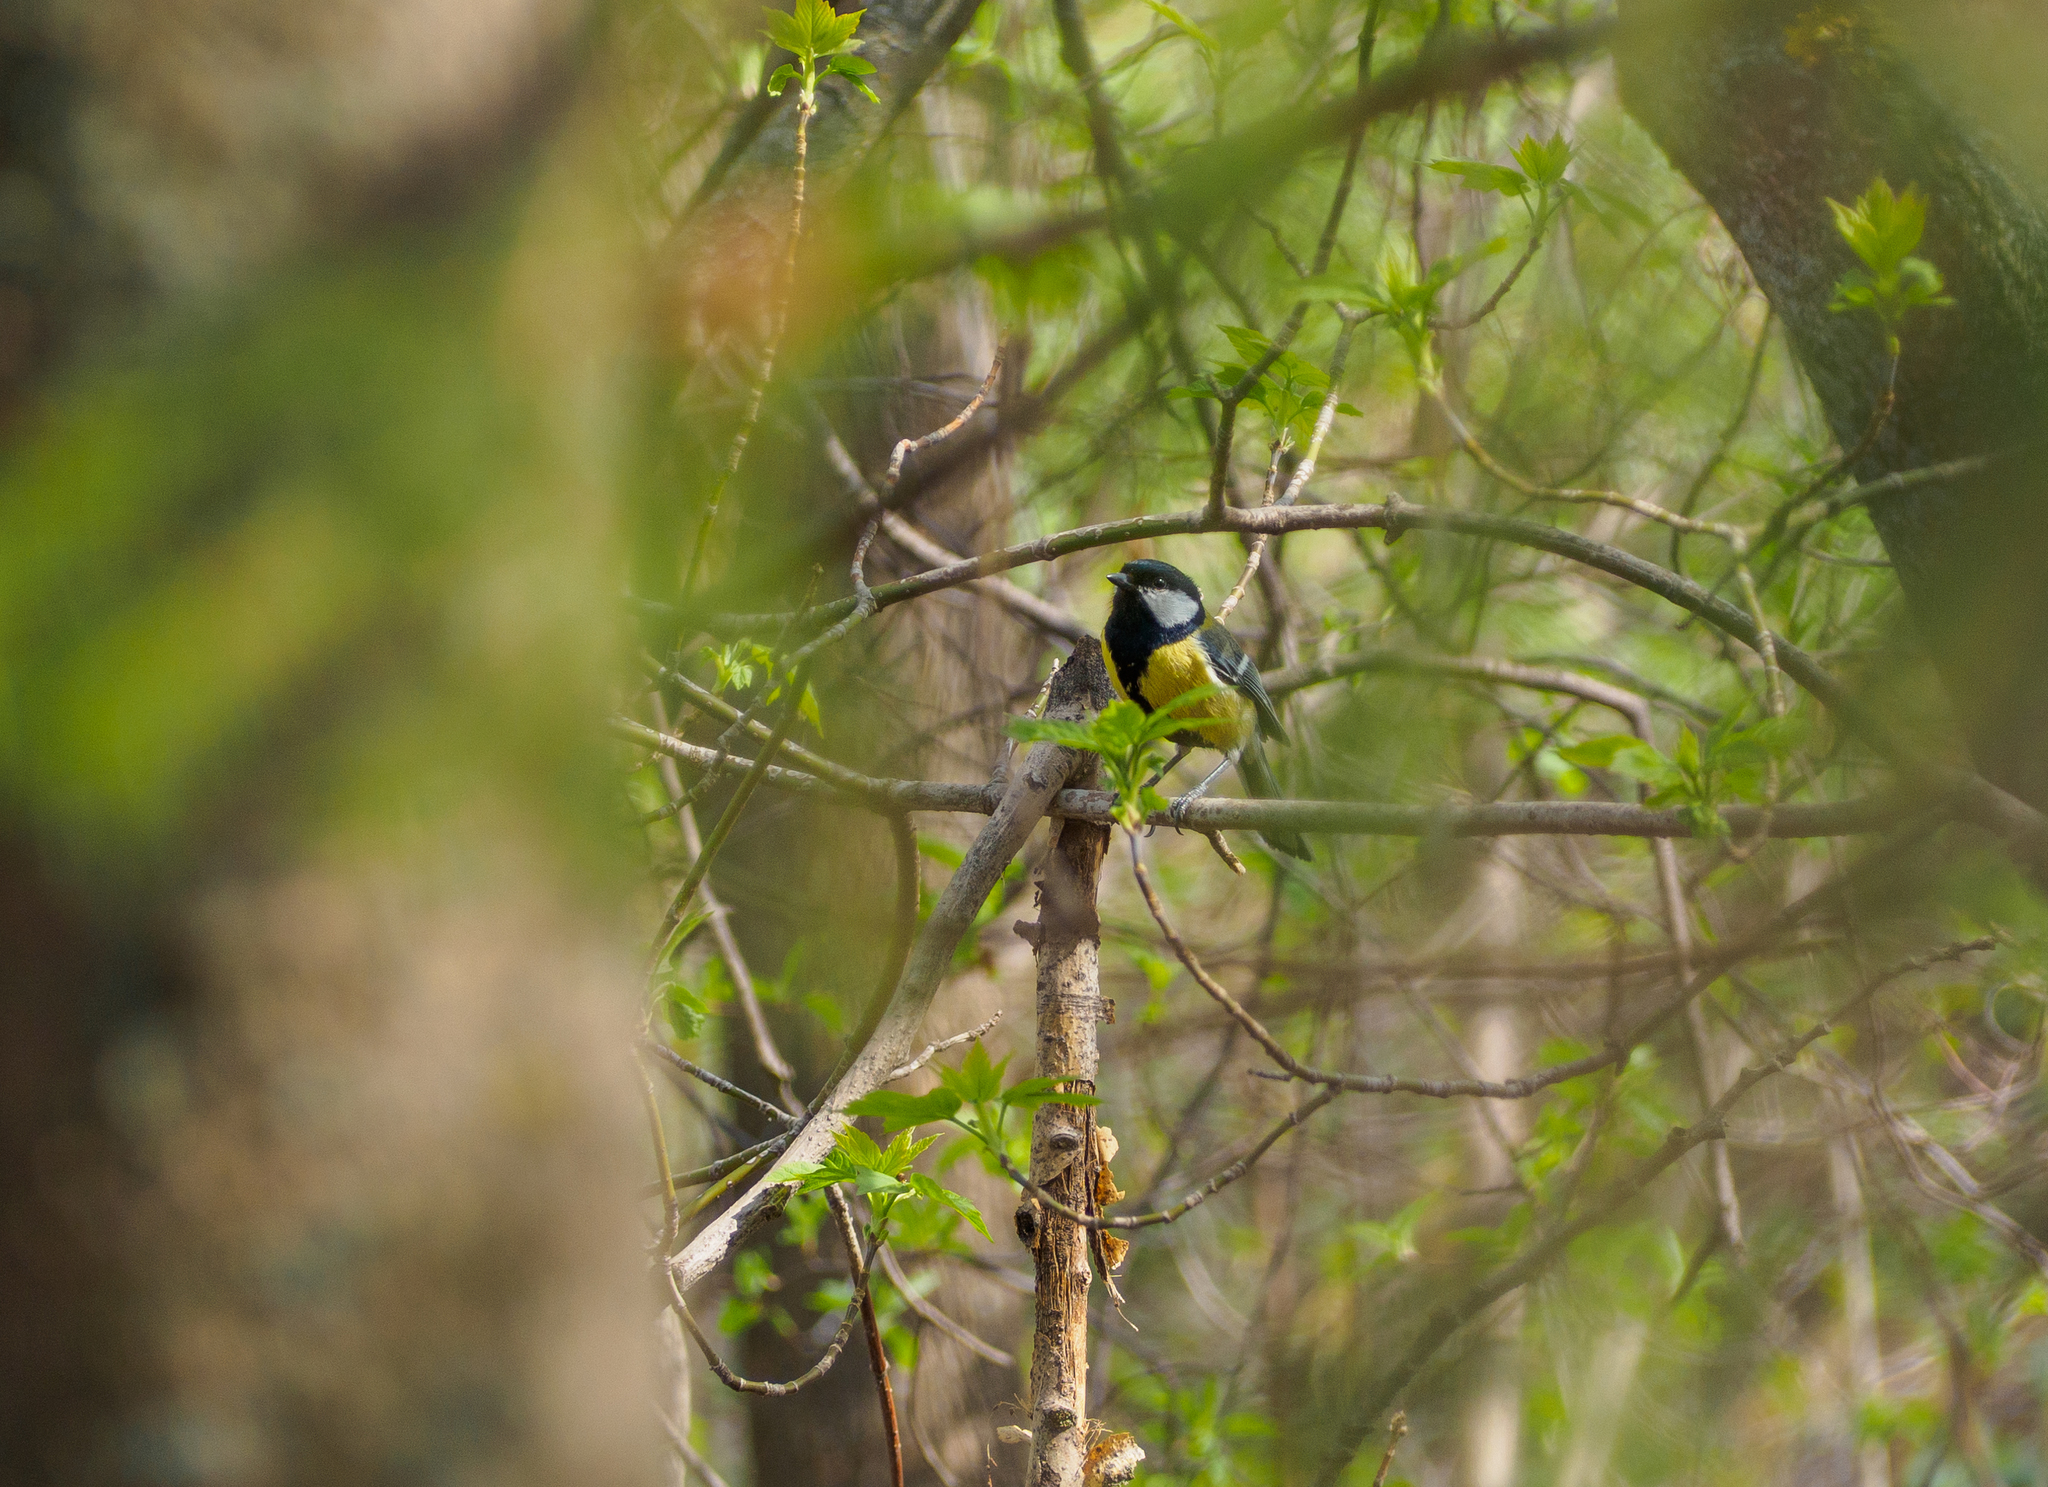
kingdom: Animalia
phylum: Chordata
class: Aves
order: Passeriformes
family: Paridae
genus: Parus
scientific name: Parus major
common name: Great tit
